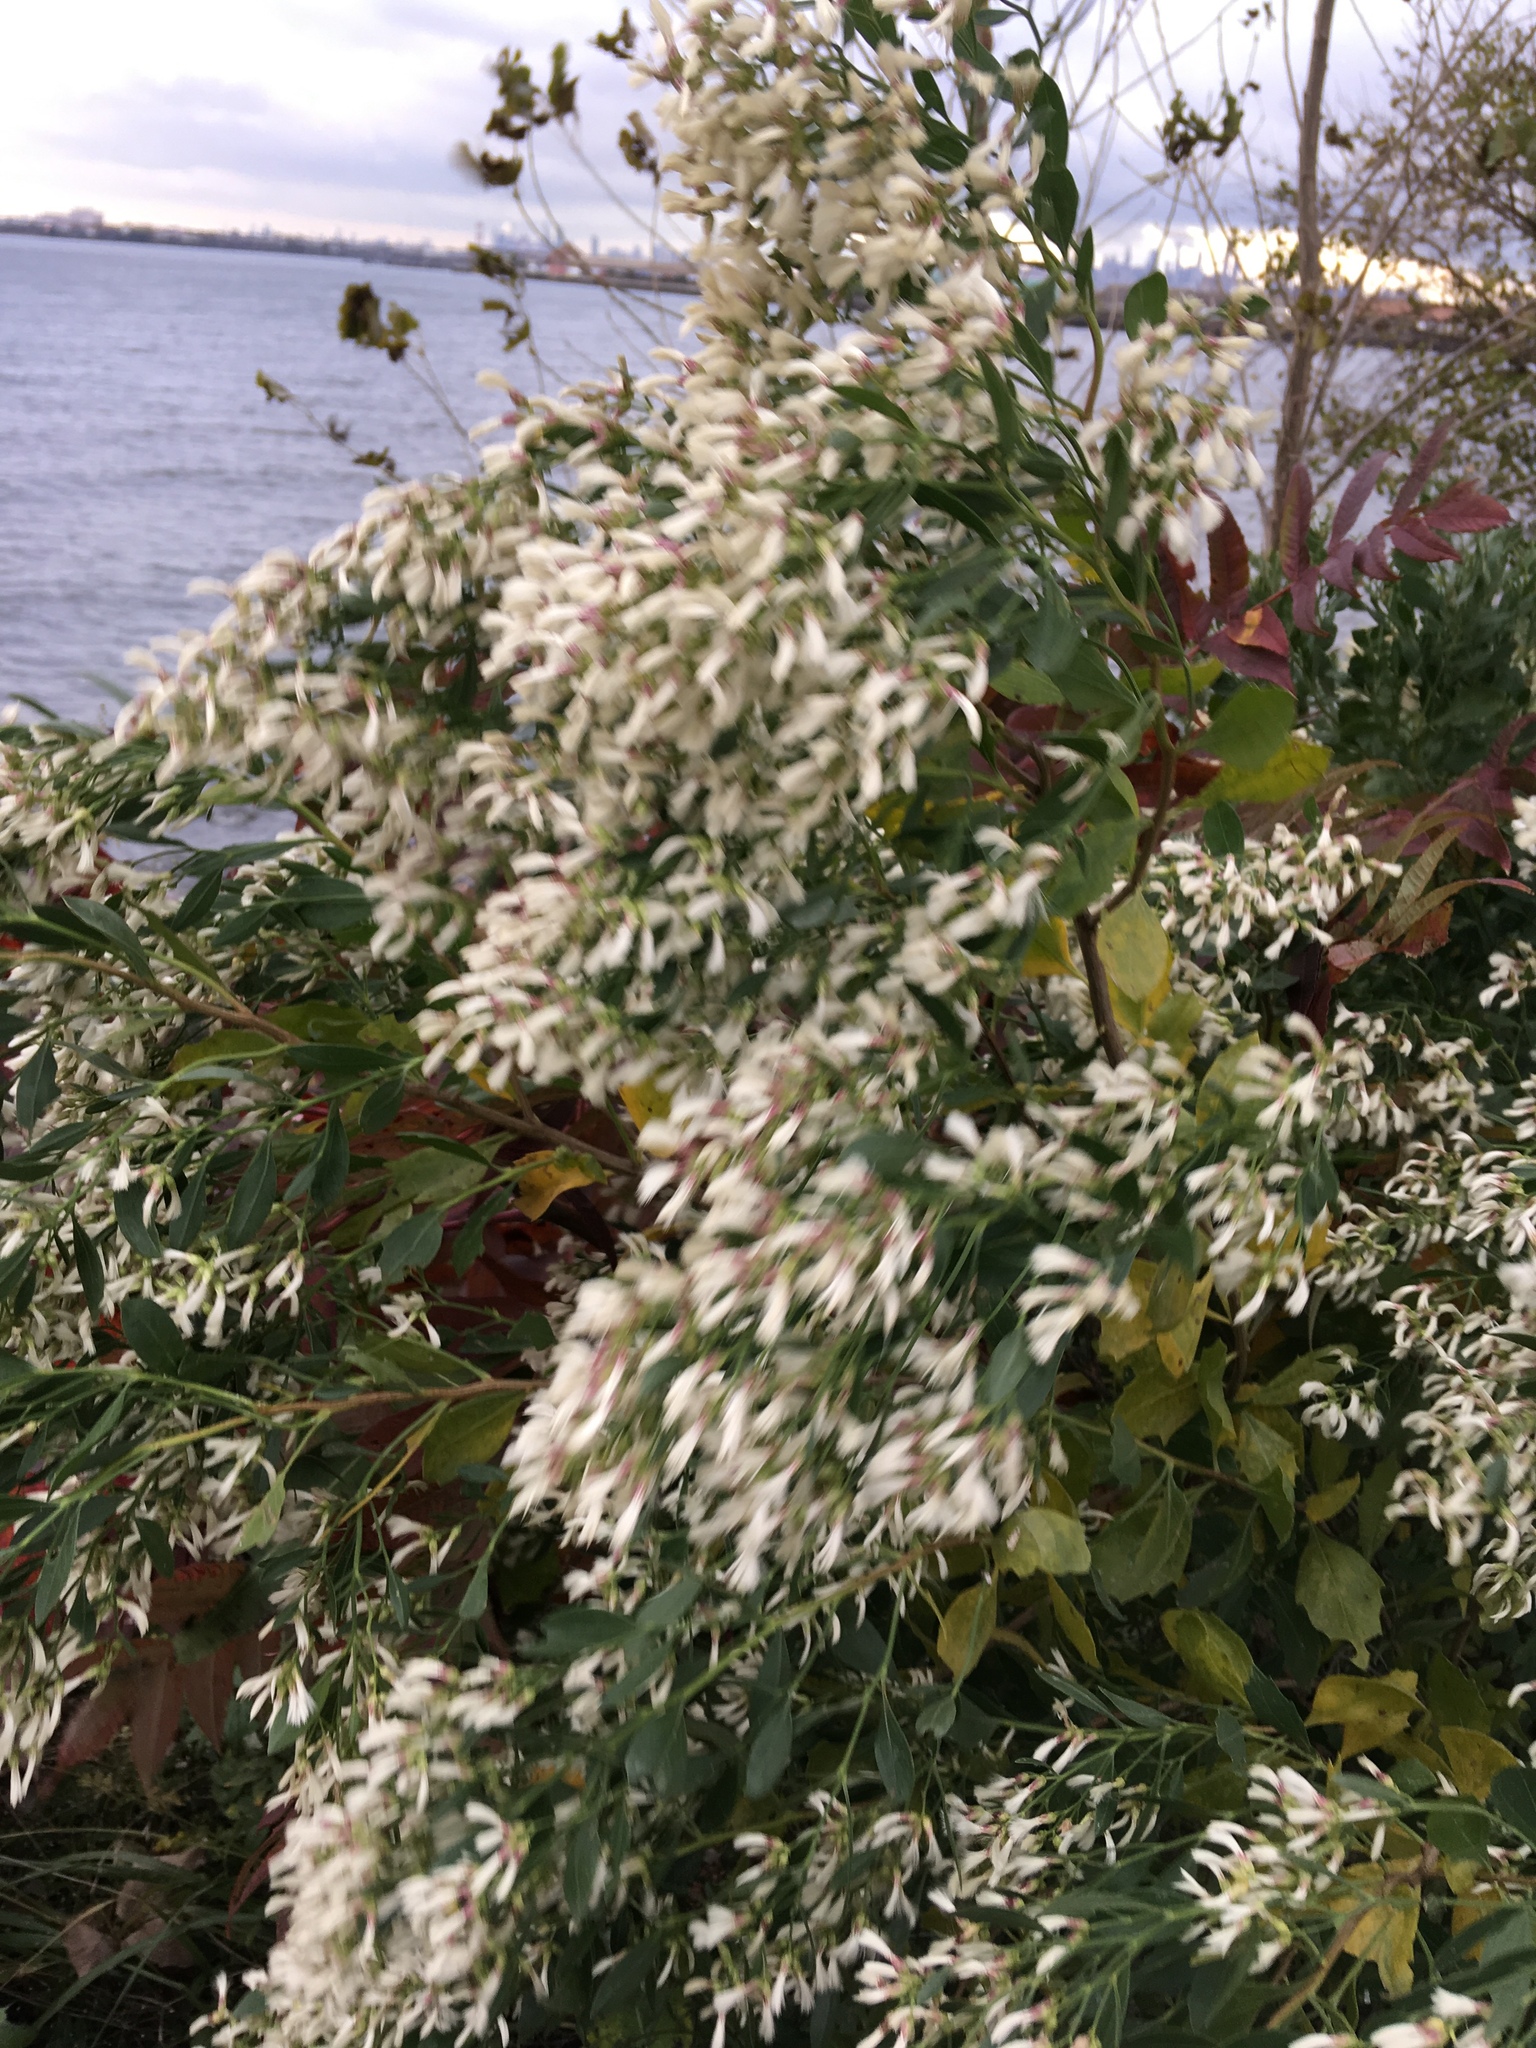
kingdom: Plantae
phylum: Tracheophyta
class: Magnoliopsida
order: Asterales
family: Asteraceae
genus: Baccharis
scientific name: Baccharis halimifolia
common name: Eastern baccharis
